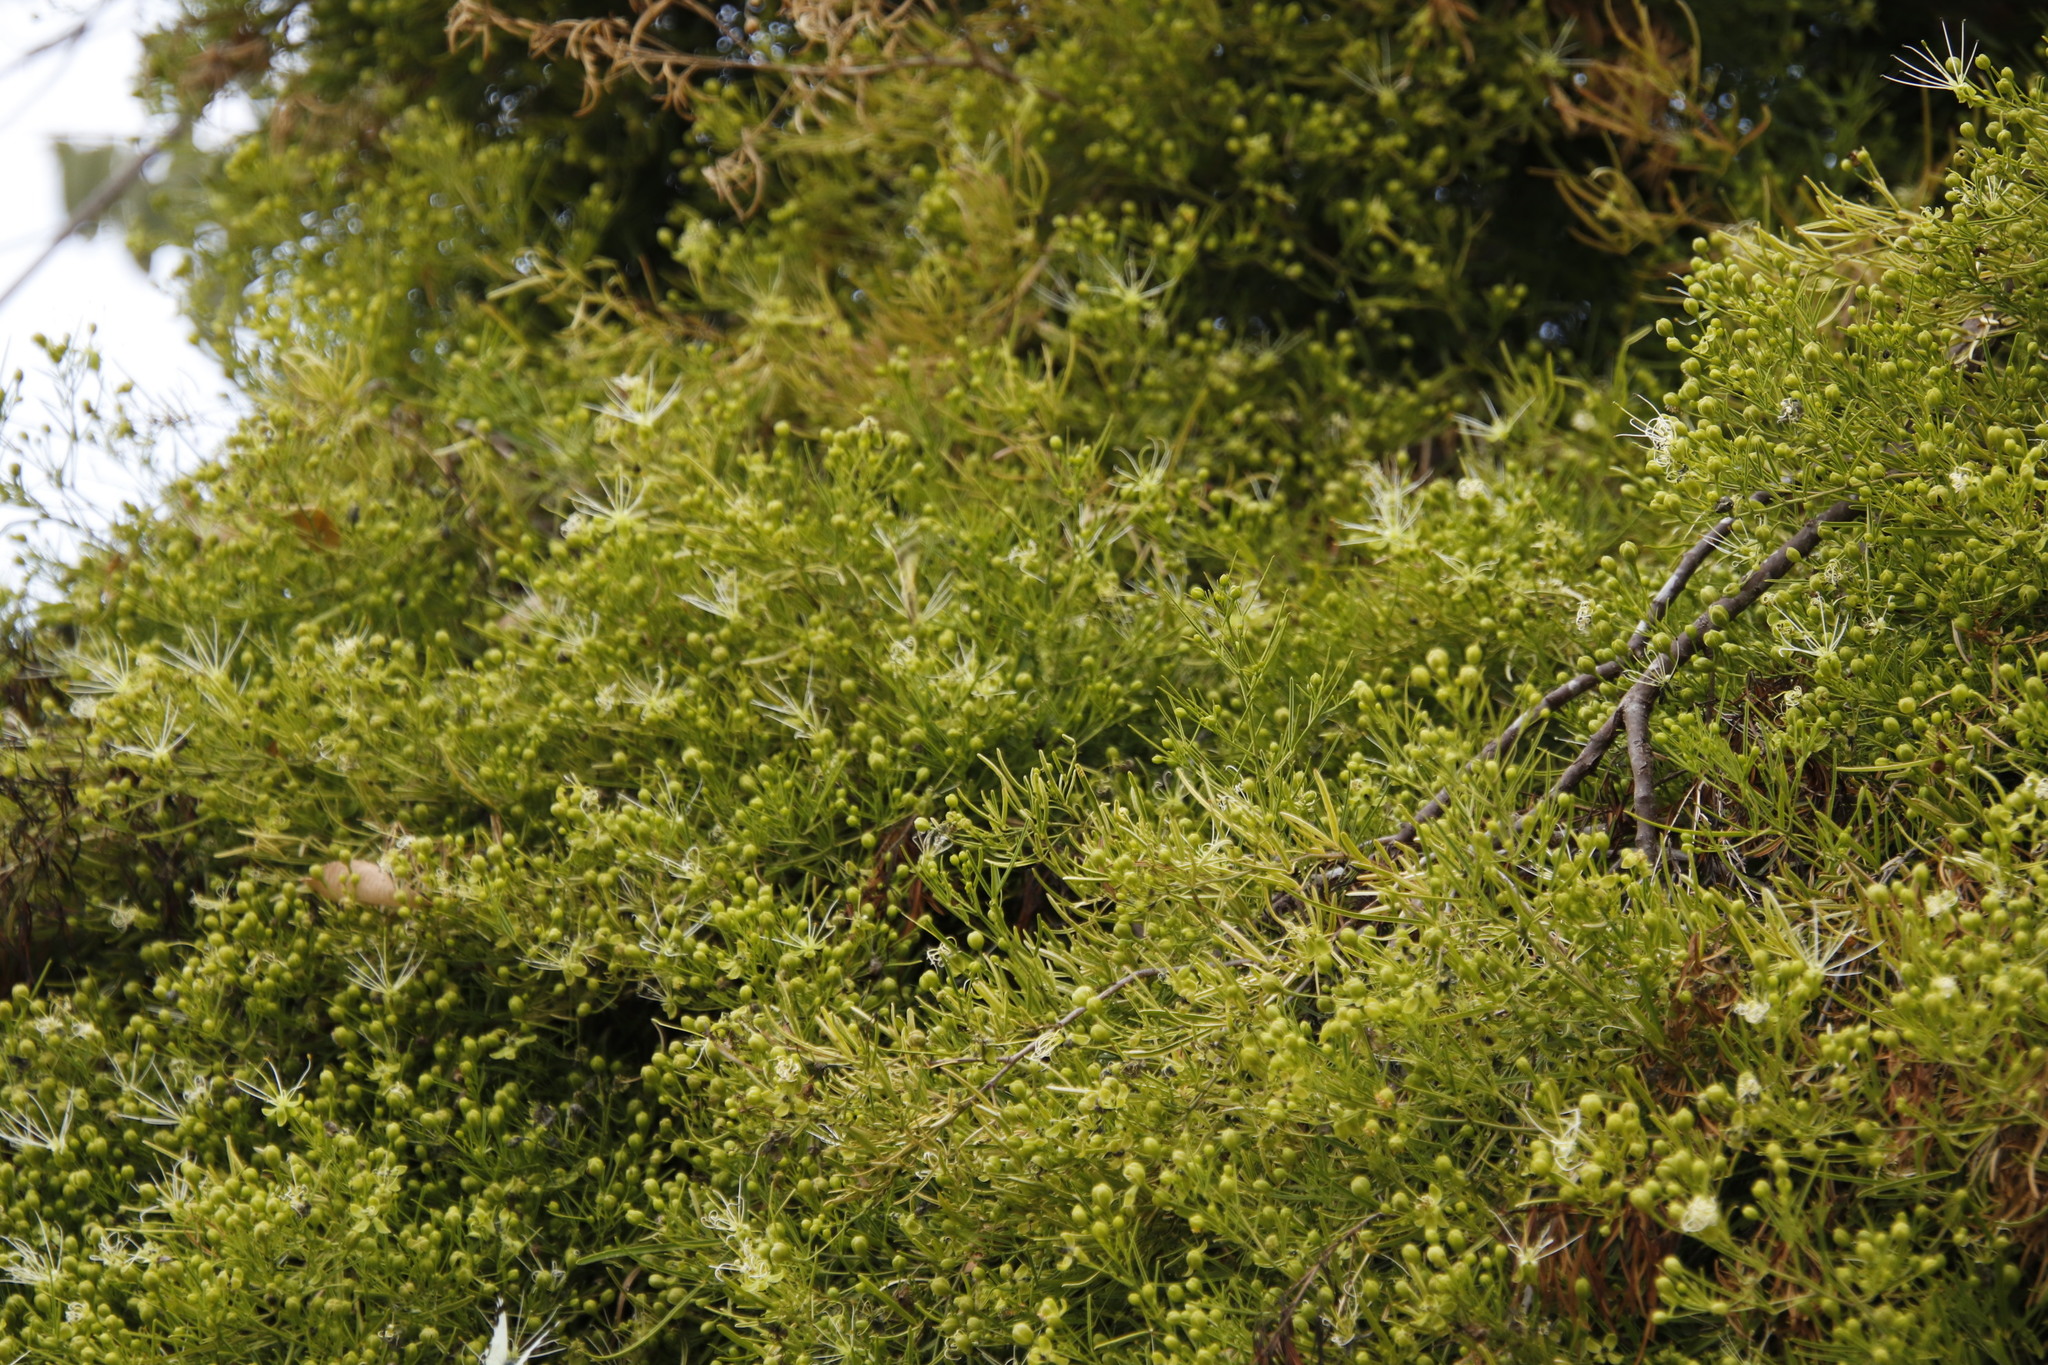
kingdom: Plantae
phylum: Tracheophyta
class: Magnoliopsida
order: Brassicales
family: Capparaceae
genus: Maerua
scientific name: Maerua rosmarinoides
